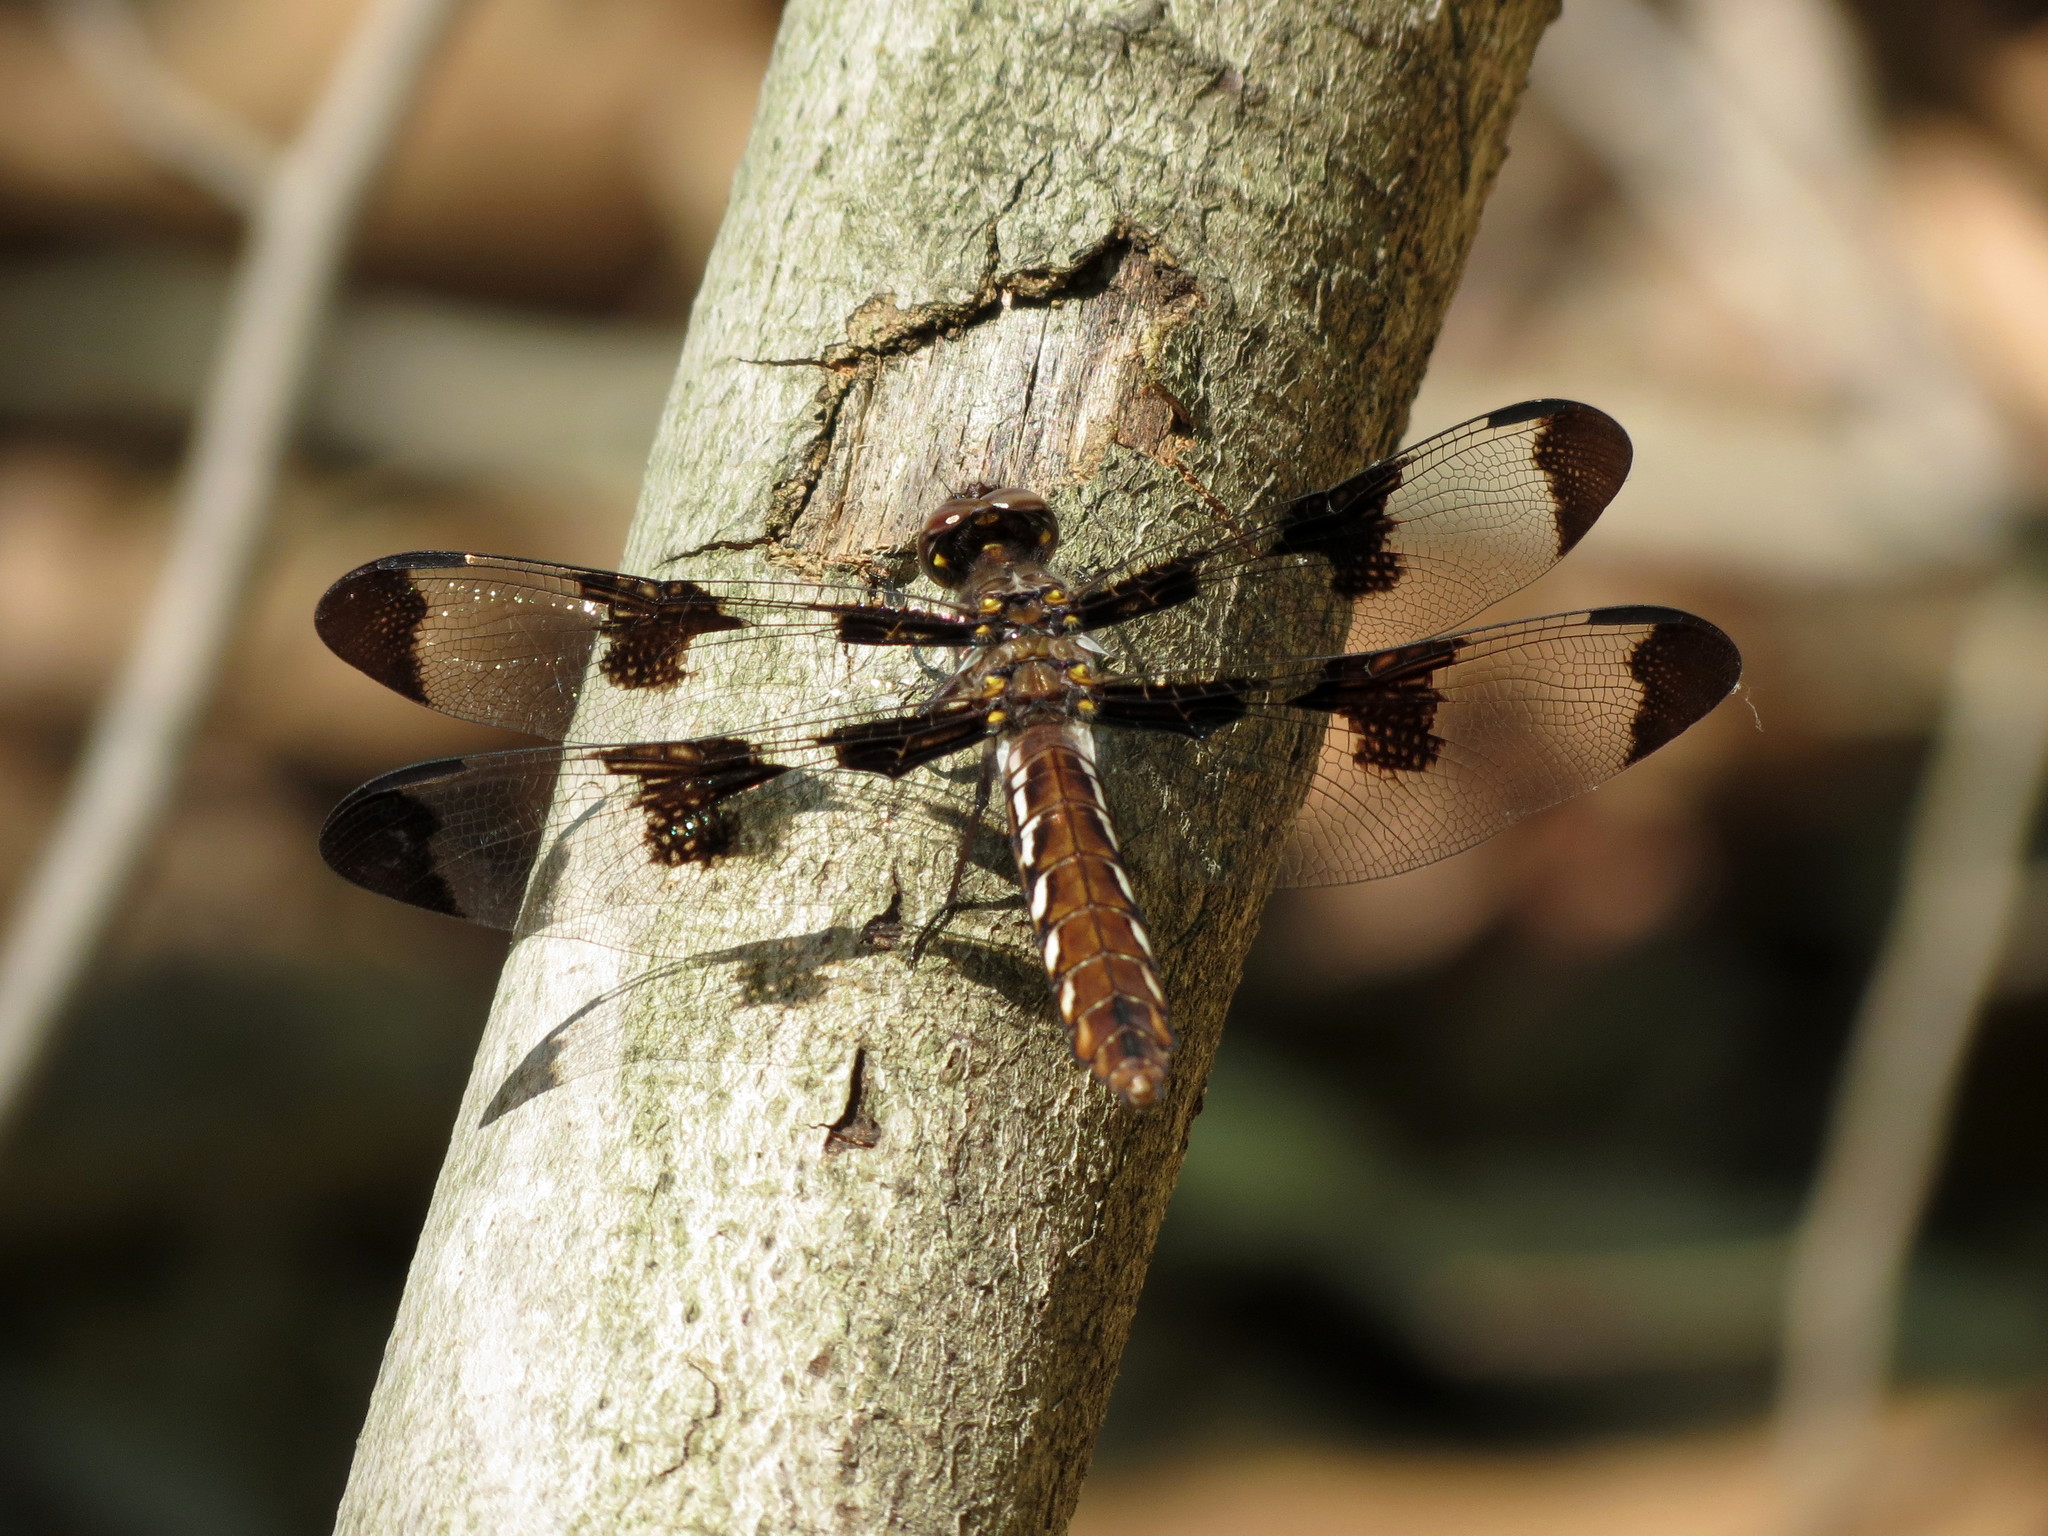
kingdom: Animalia
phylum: Arthropoda
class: Insecta
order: Odonata
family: Libellulidae
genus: Plathemis
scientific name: Plathemis lydia
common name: Common whitetail
